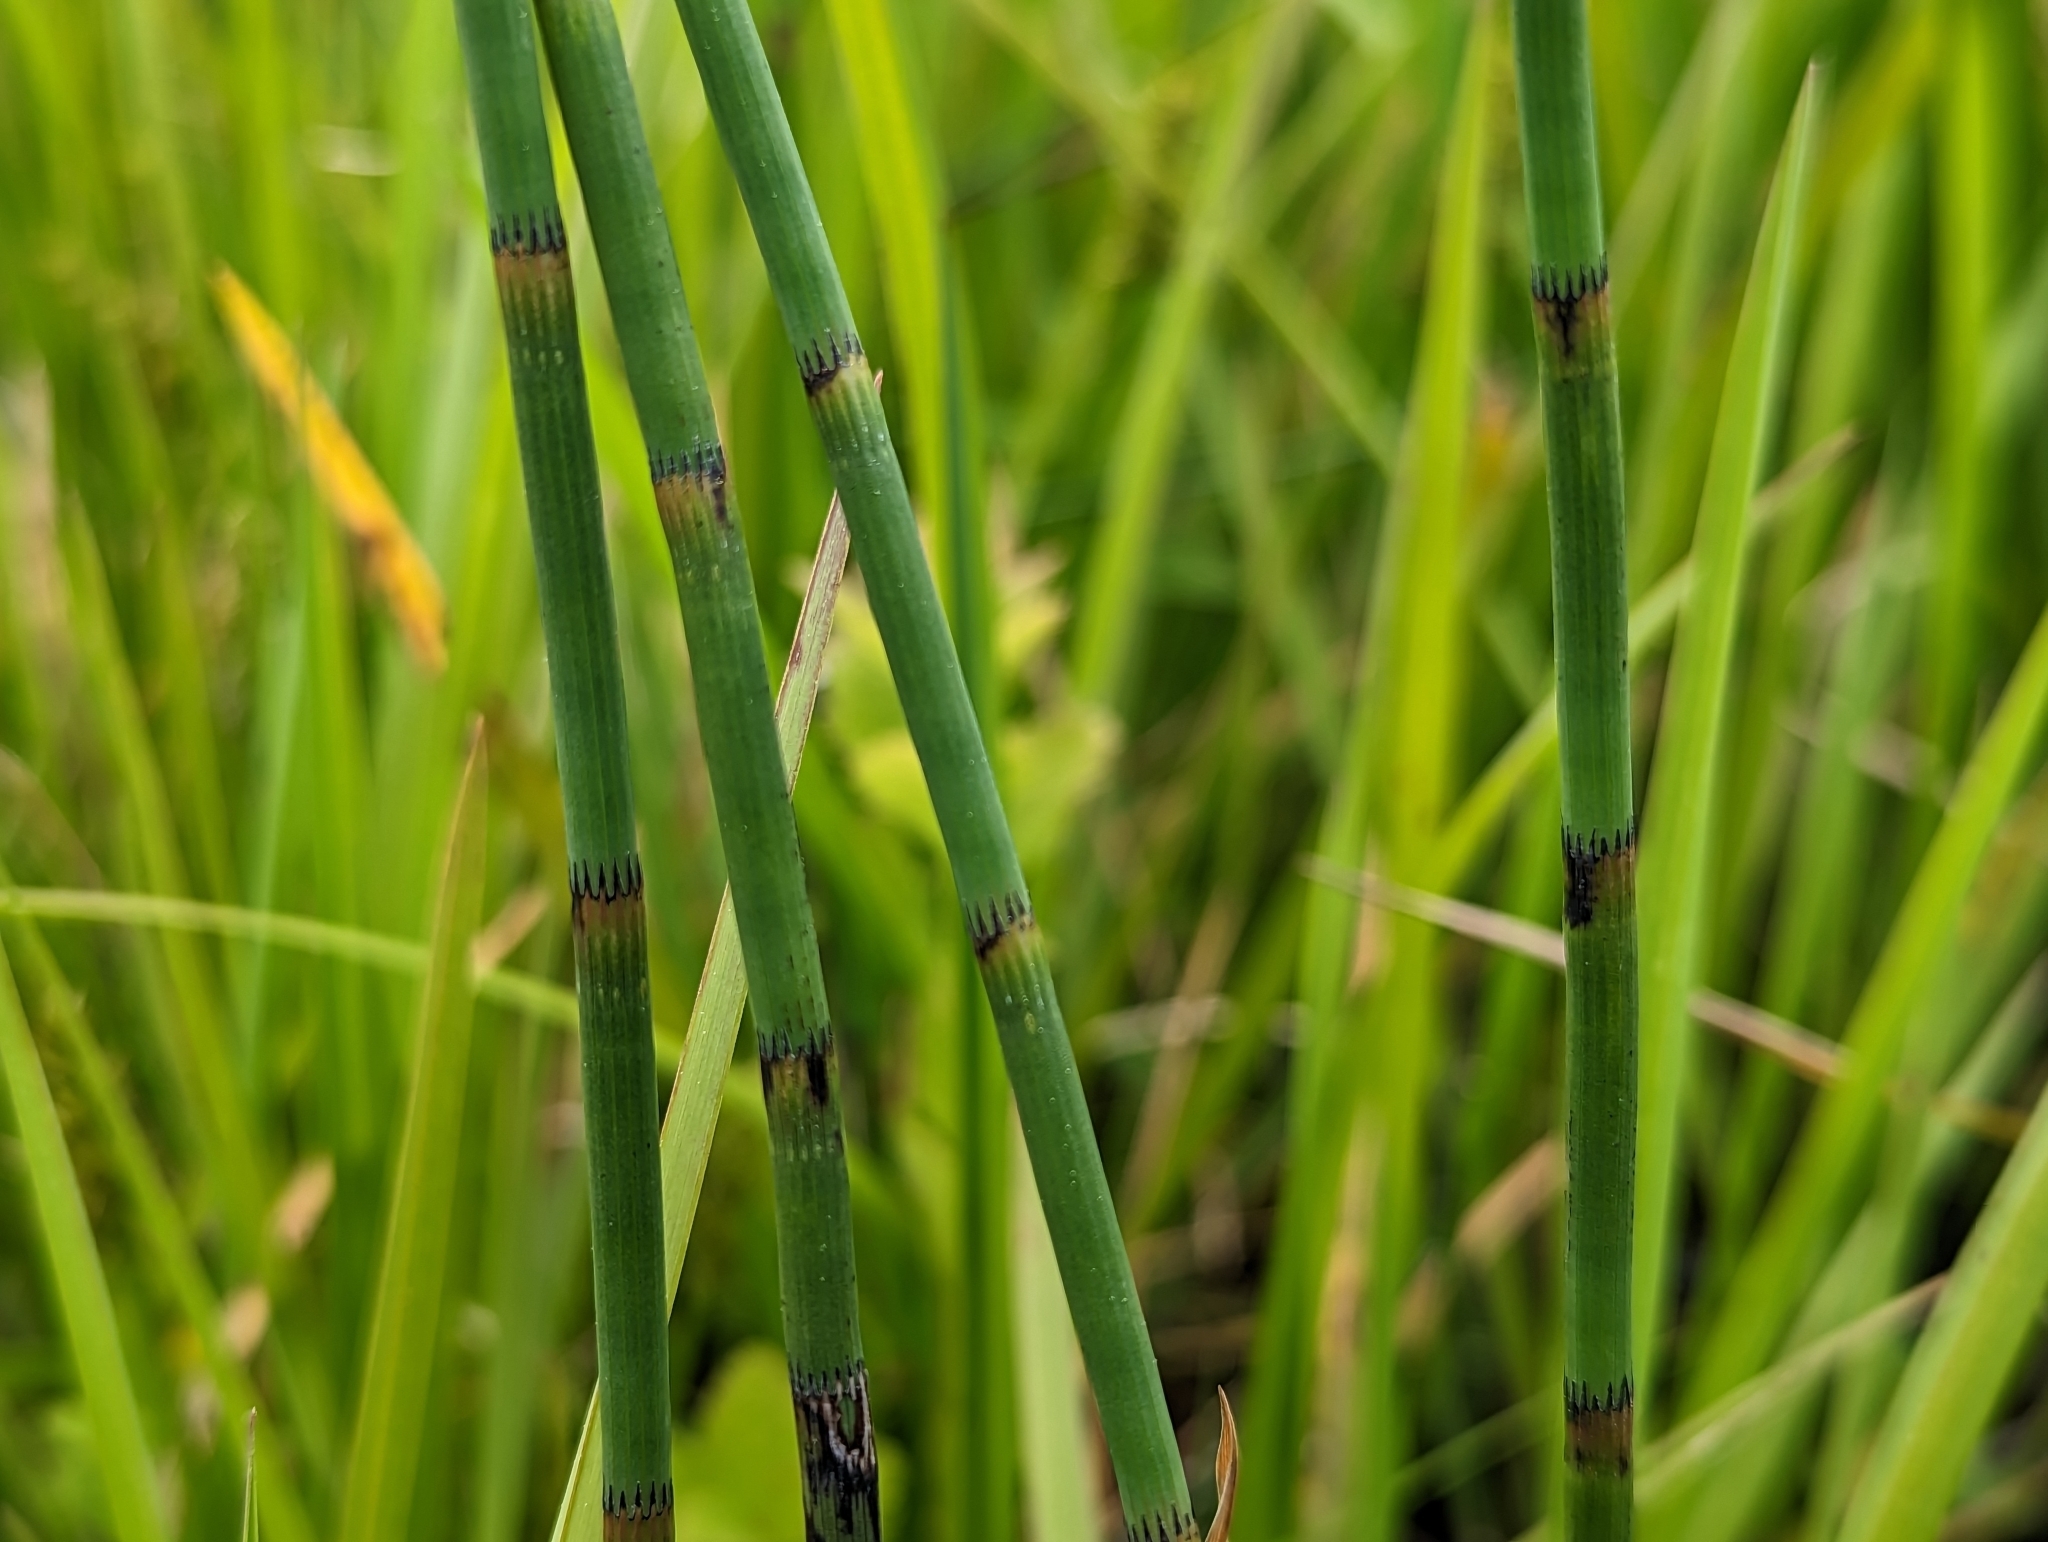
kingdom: Plantae
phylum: Tracheophyta
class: Polypodiopsida
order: Equisetales
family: Equisetaceae
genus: Equisetum
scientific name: Equisetum fluviatile
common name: Water horsetail
